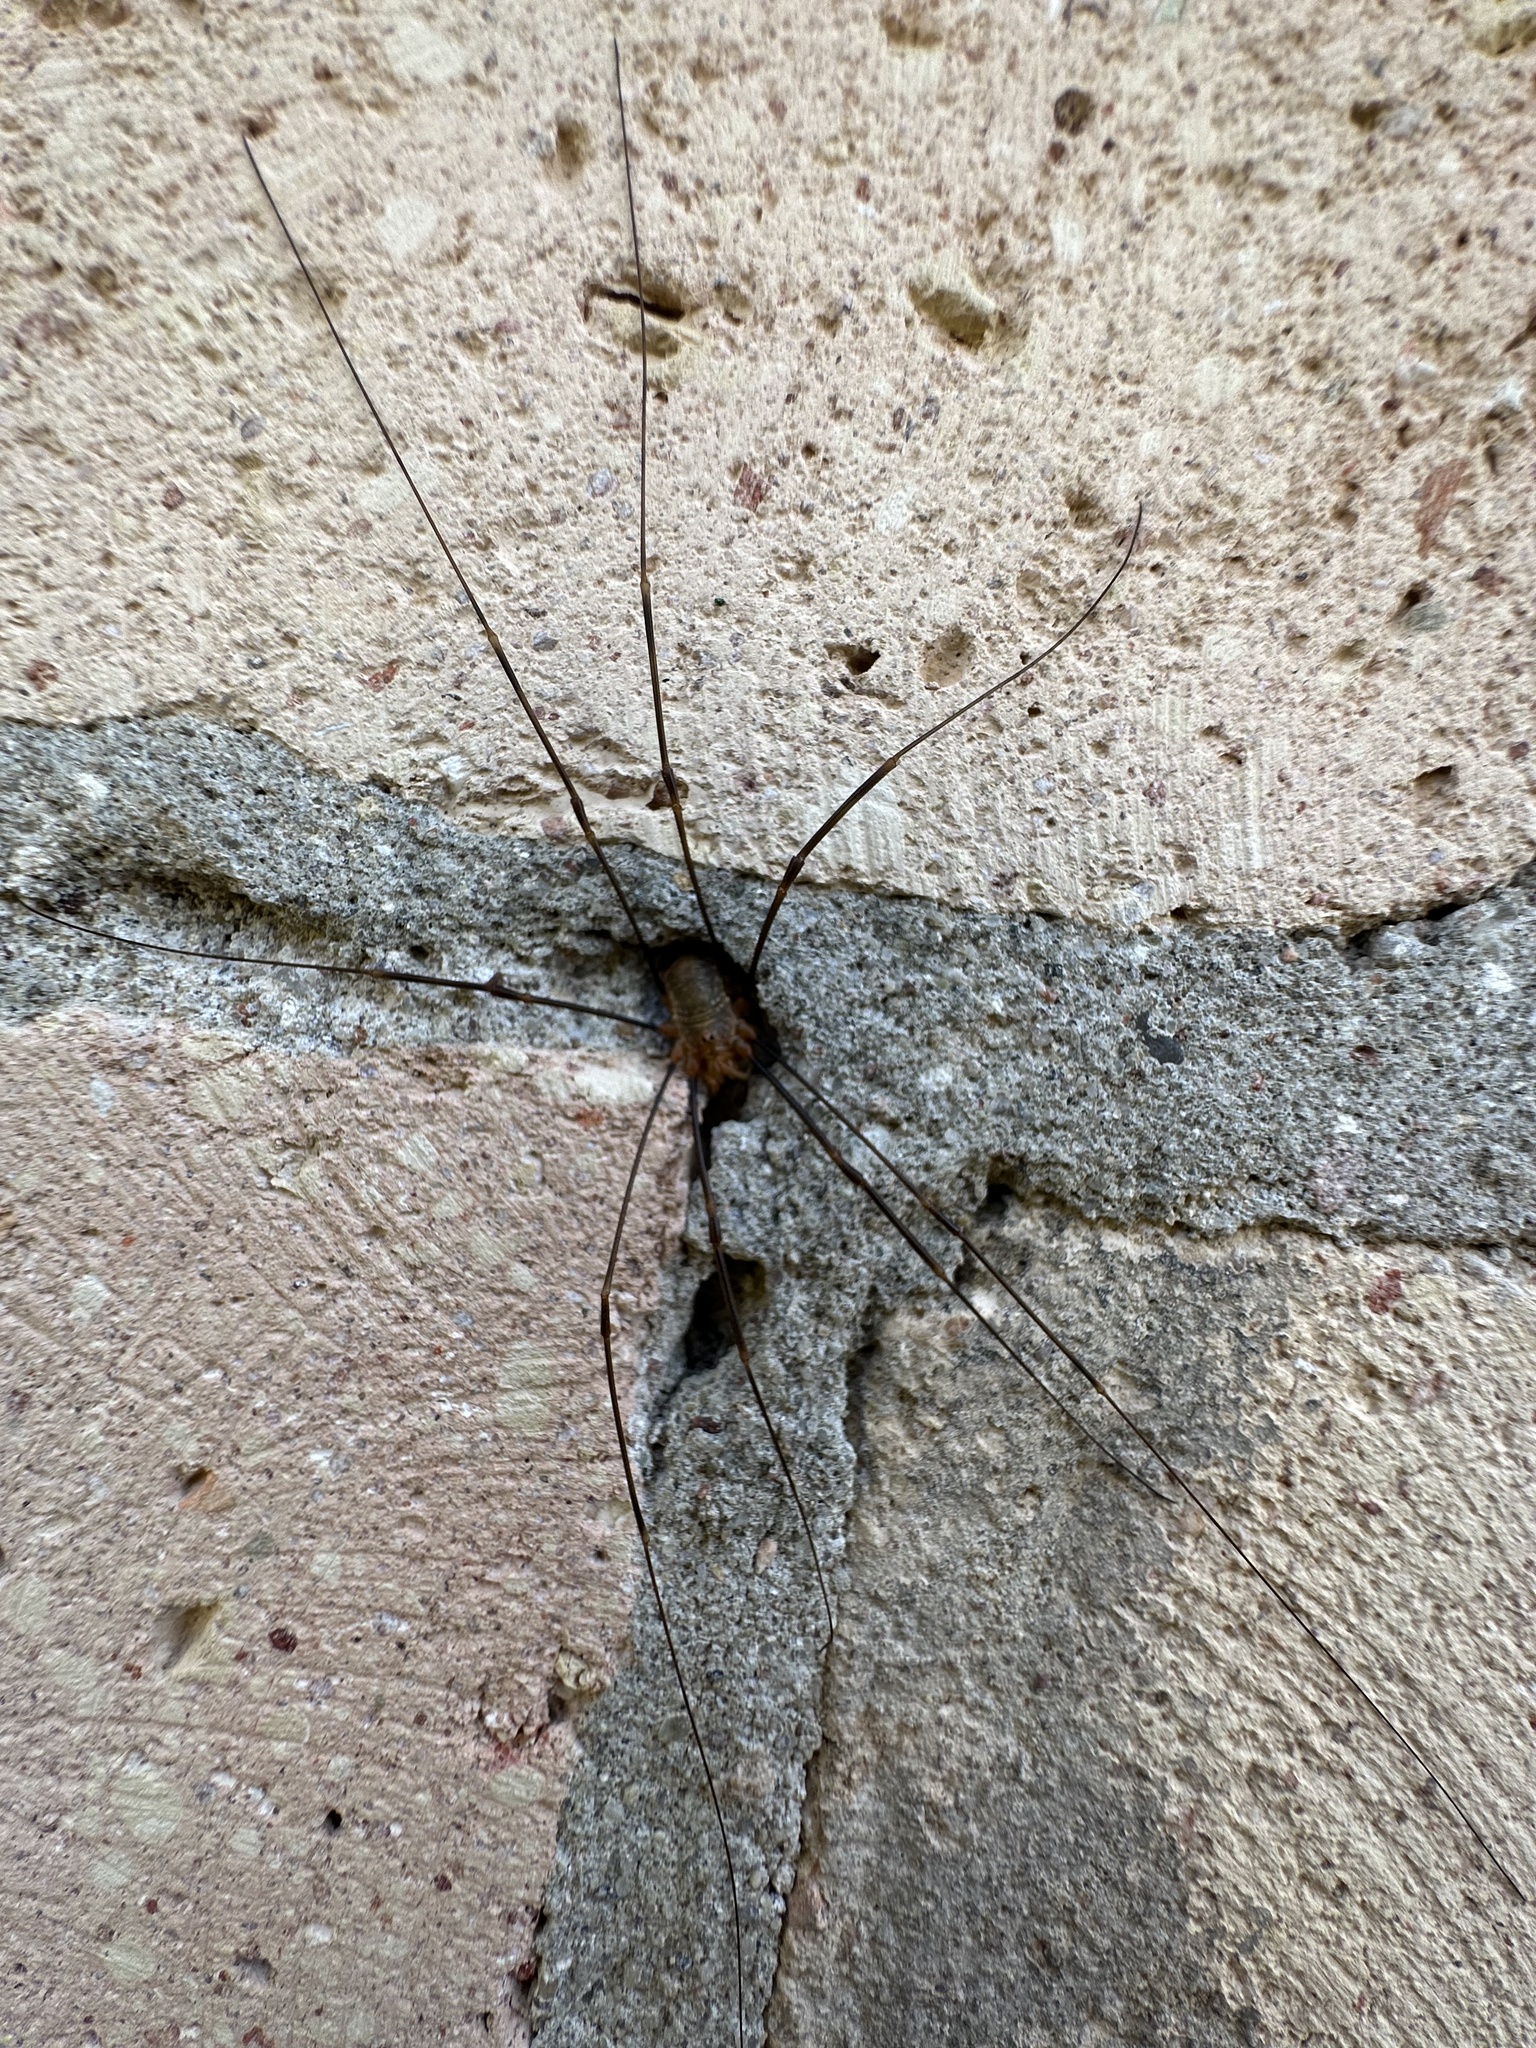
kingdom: Animalia
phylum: Arthropoda
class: Arachnida
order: Opiliones
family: Phalangiidae
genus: Opilio
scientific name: Opilio canestrinii
